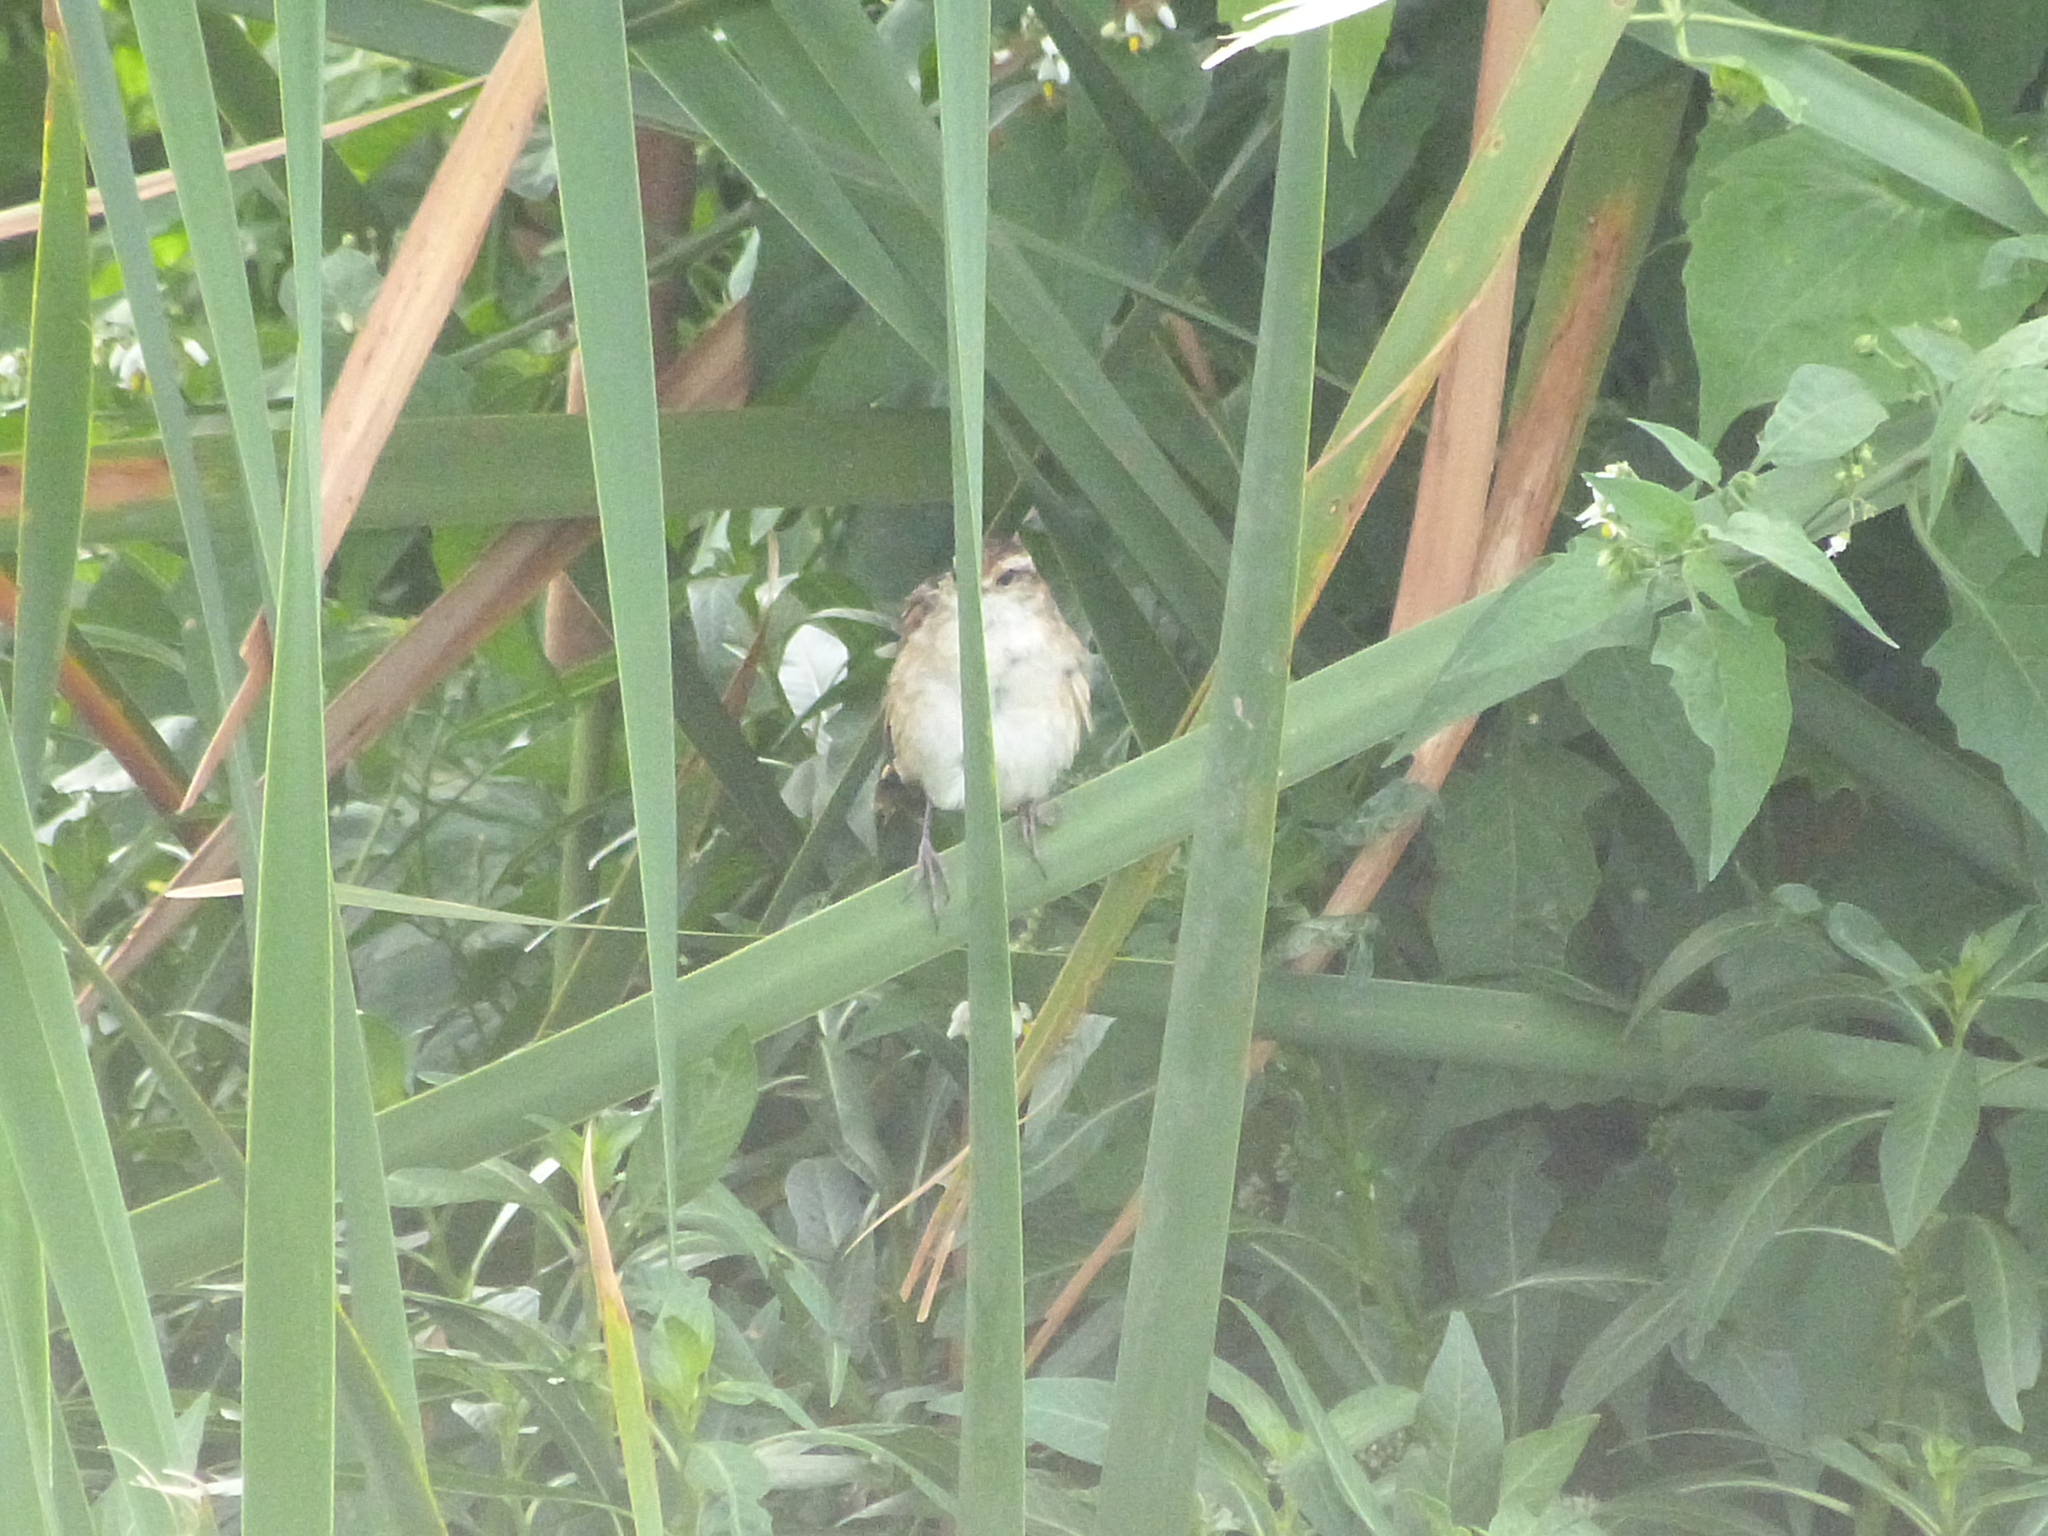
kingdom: Animalia
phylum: Chordata
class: Aves
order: Passeriformes
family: Furnariidae
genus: Phleocryptes
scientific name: Phleocryptes melanops
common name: Wren-like rushbird
